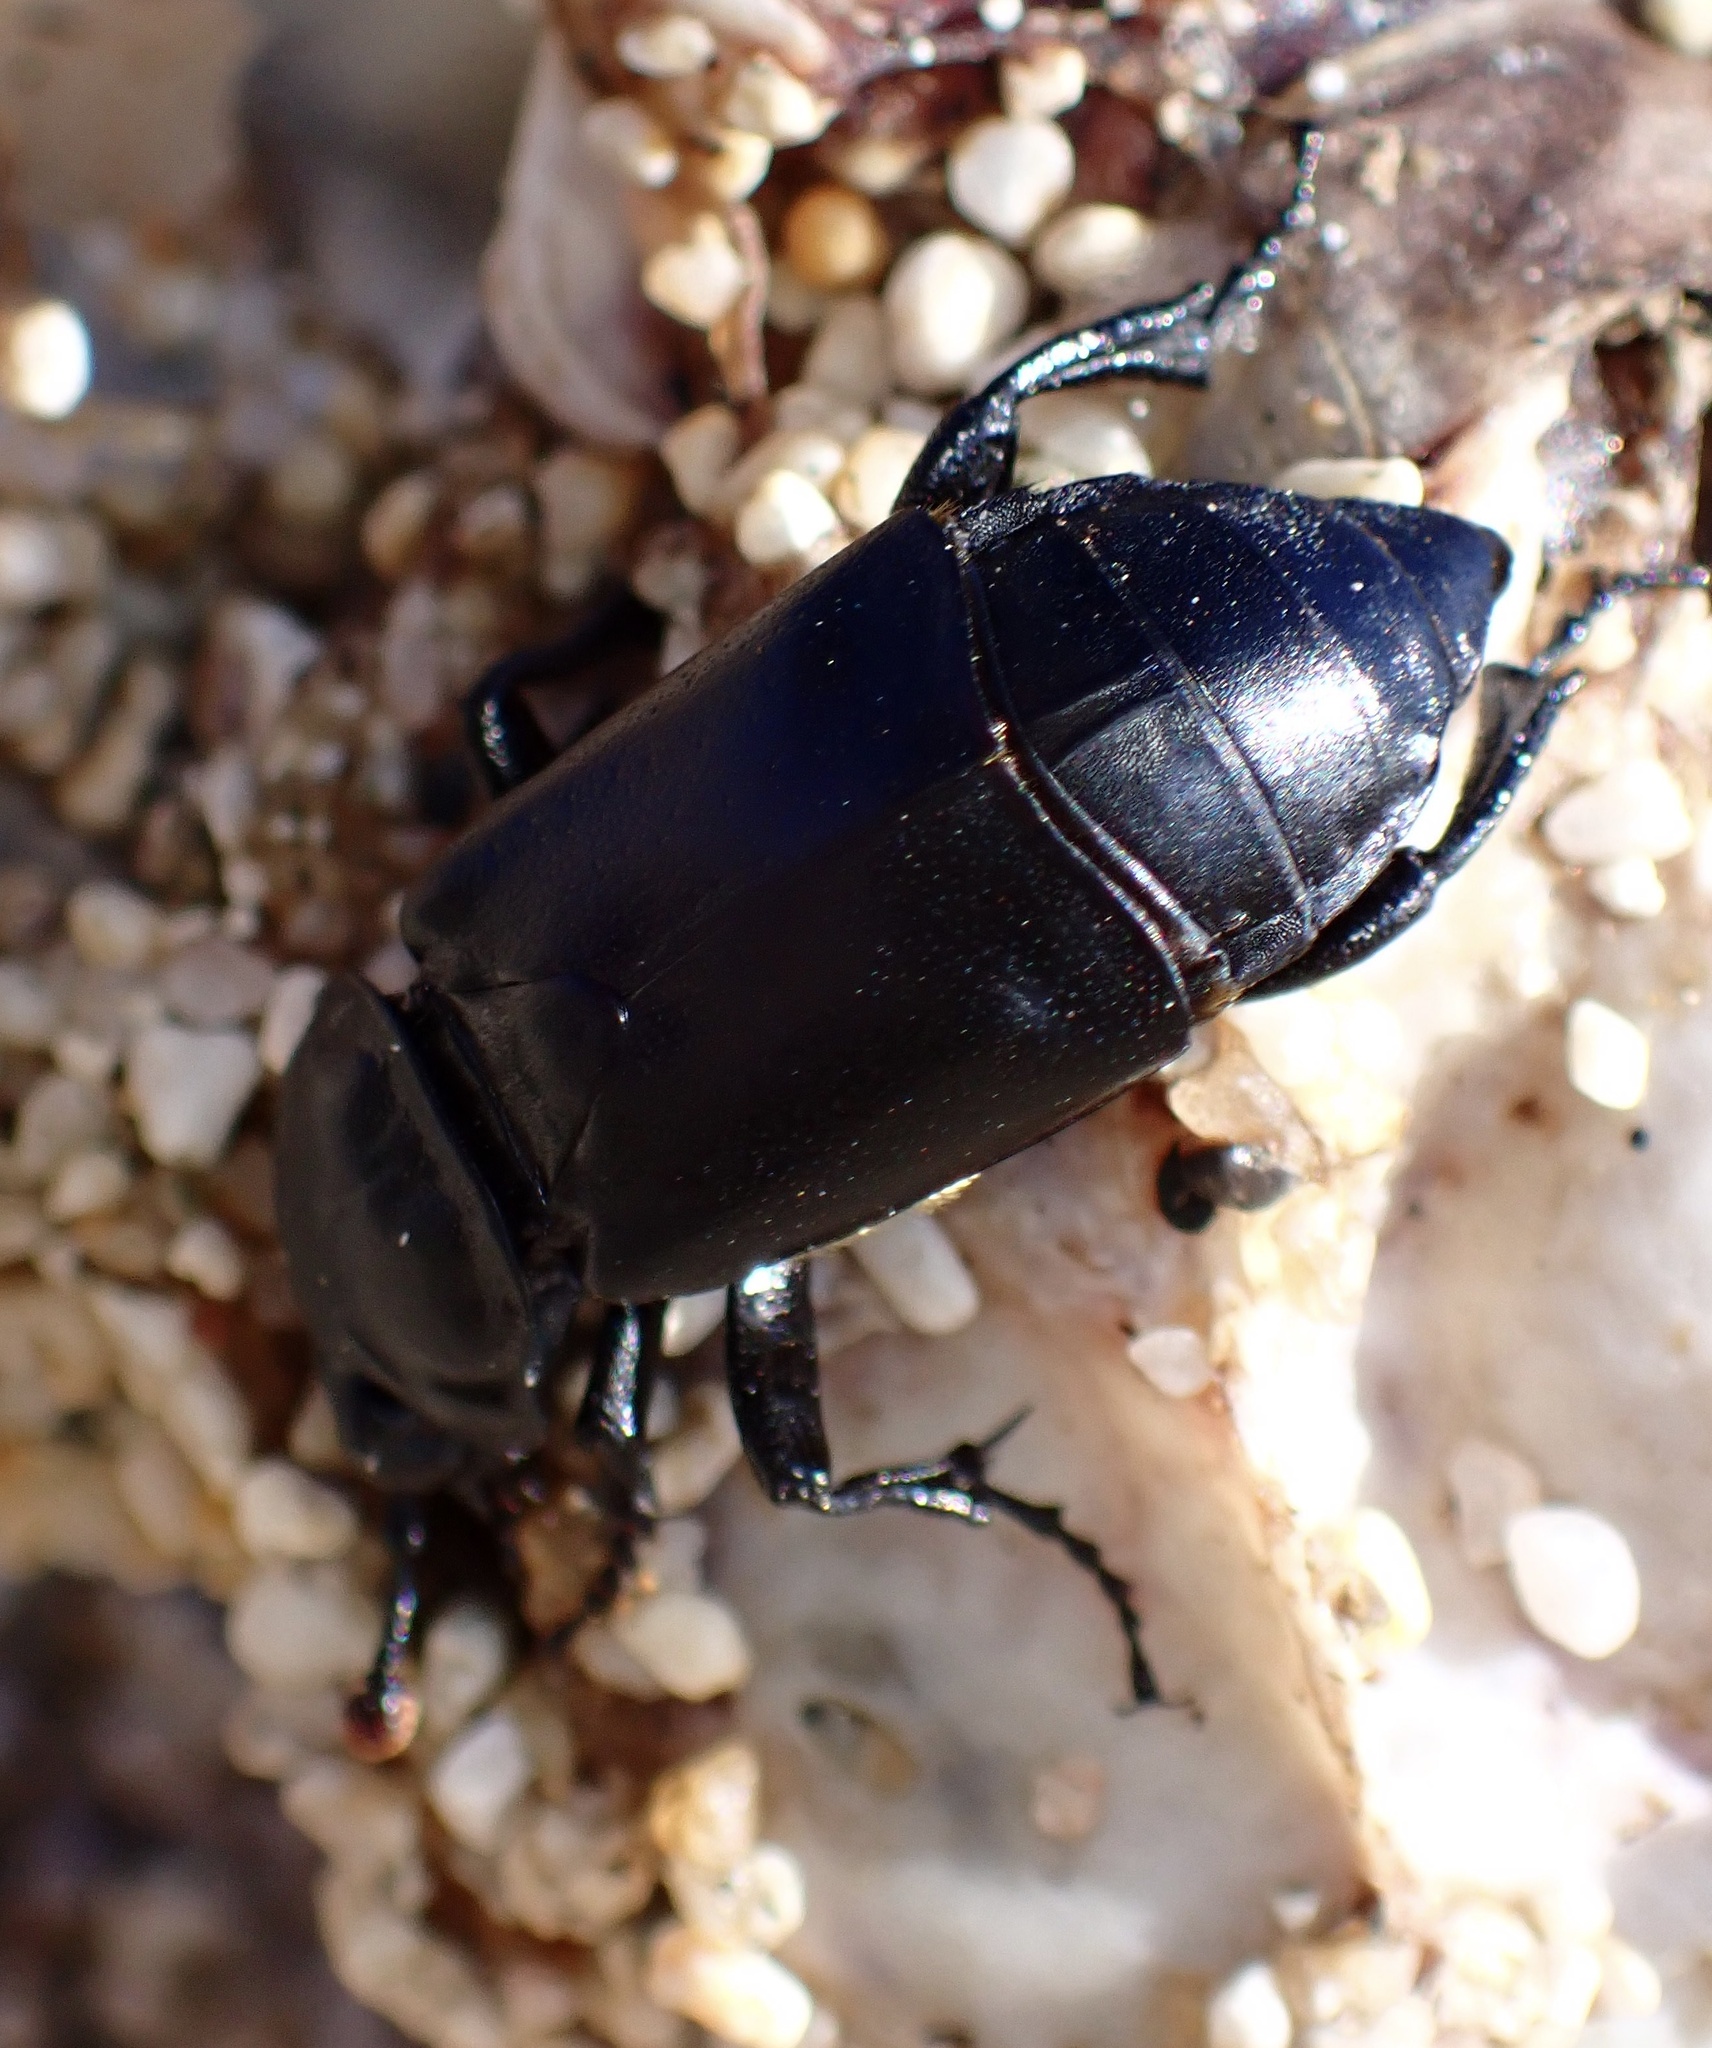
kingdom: Animalia
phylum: Arthropoda
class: Insecta
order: Coleoptera
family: Staphylinidae
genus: Nicrophorus
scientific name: Nicrophorus guttula
